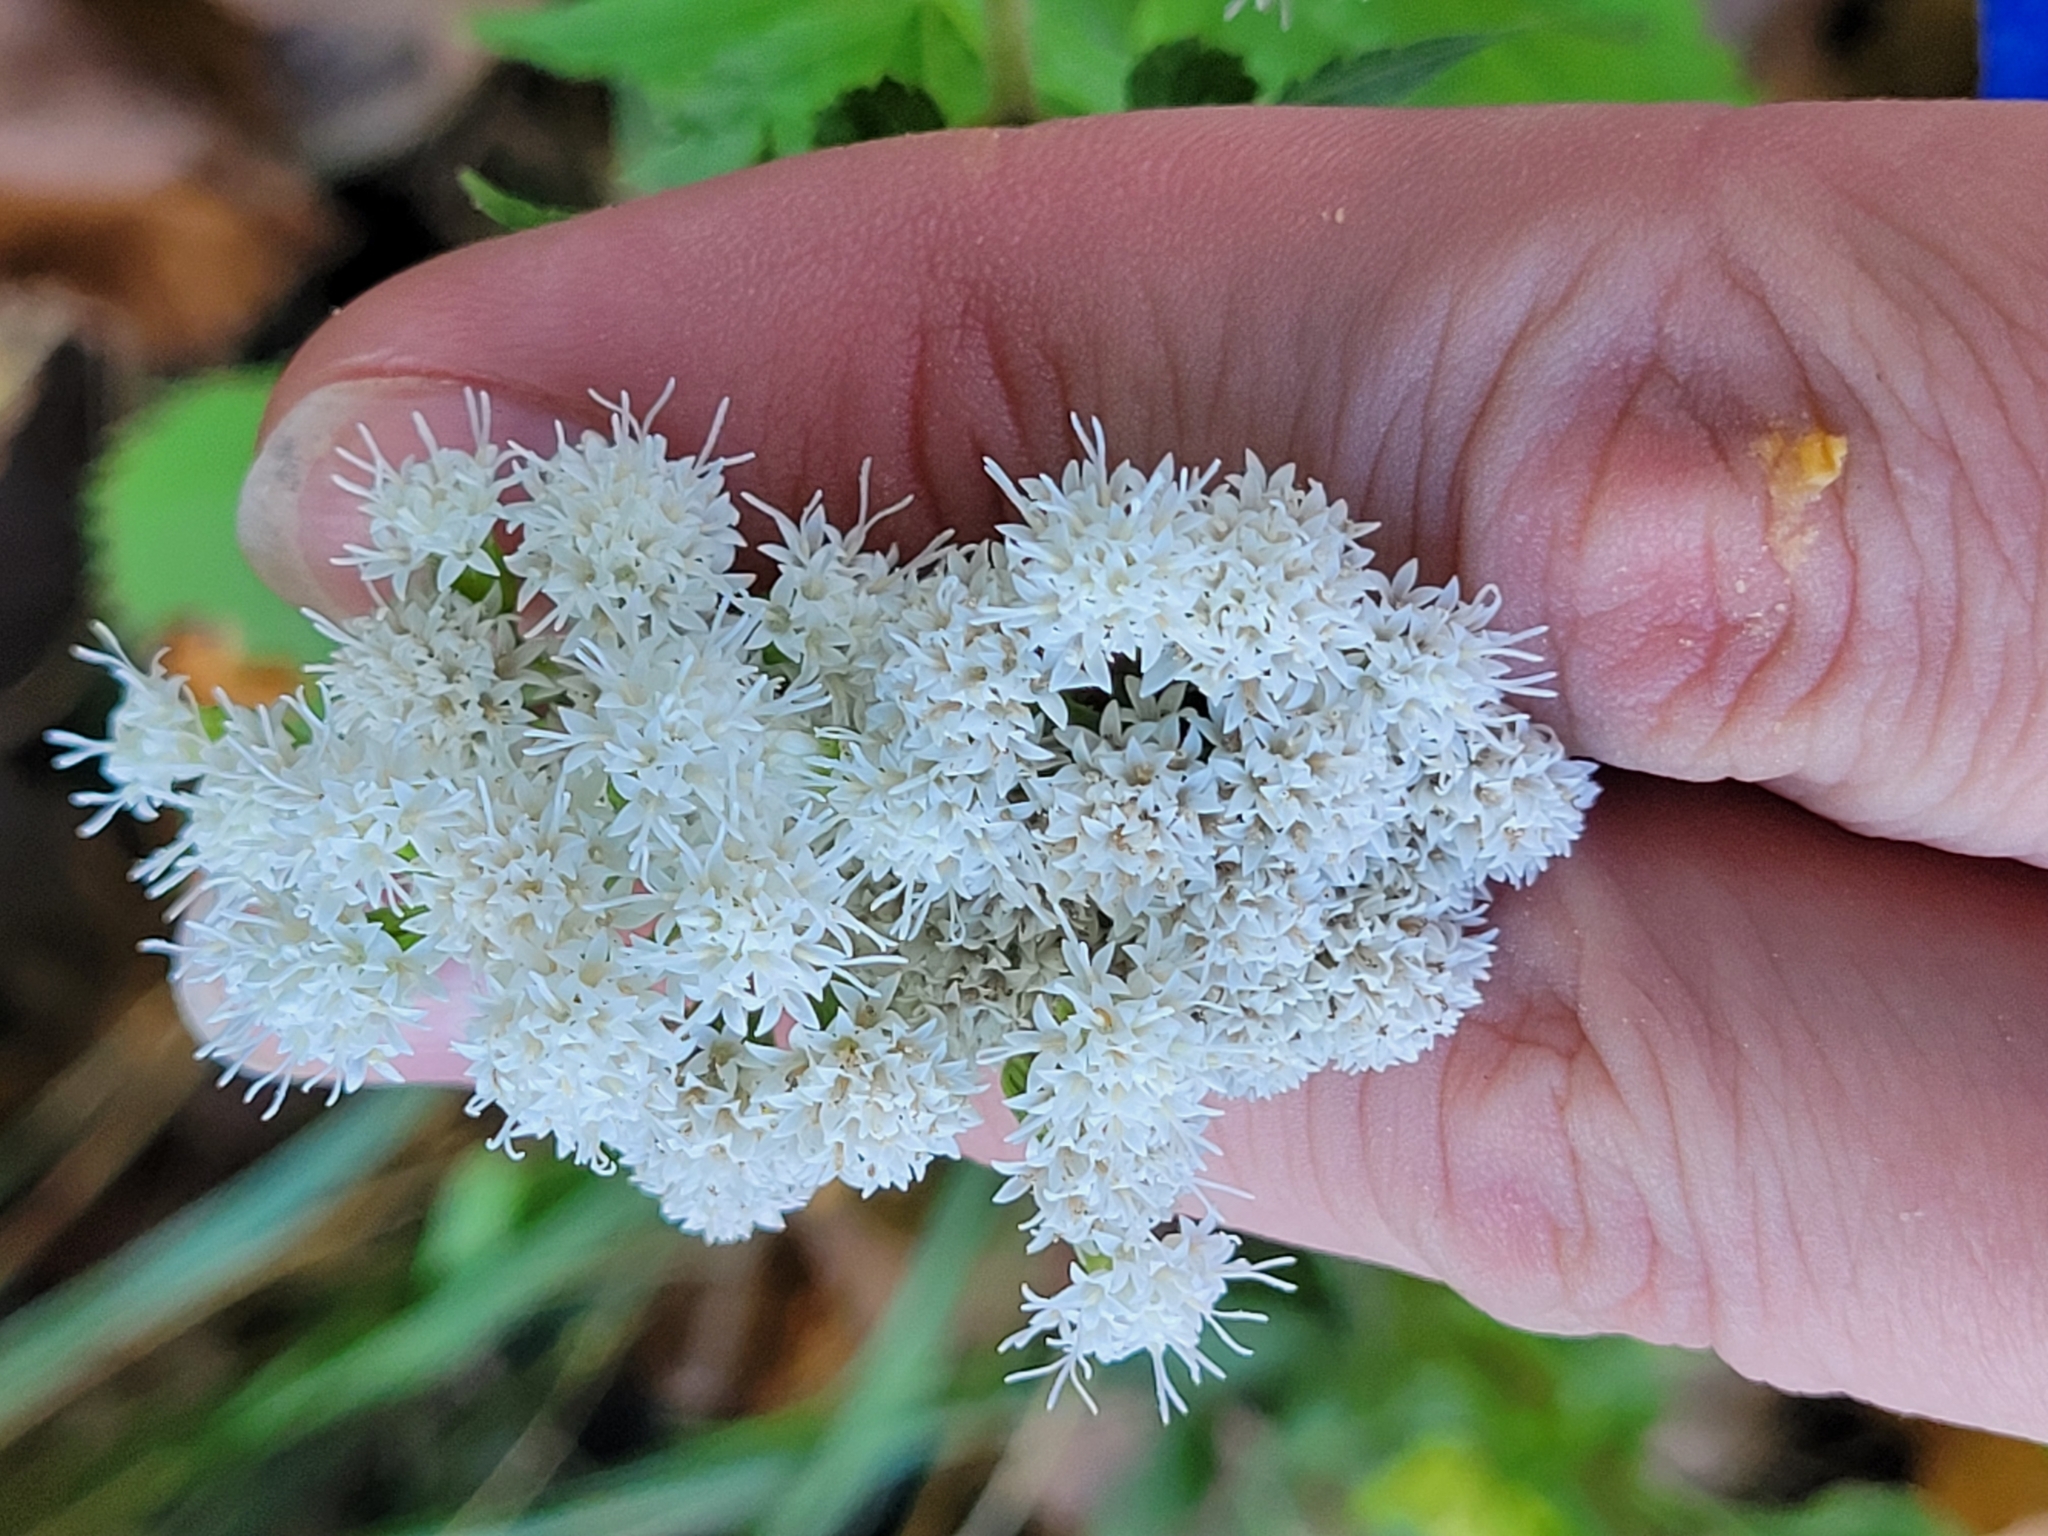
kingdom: Plantae
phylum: Tracheophyta
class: Magnoliopsida
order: Asterales
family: Asteraceae
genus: Ageratina
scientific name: Ageratina altissima
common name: White snakeroot
